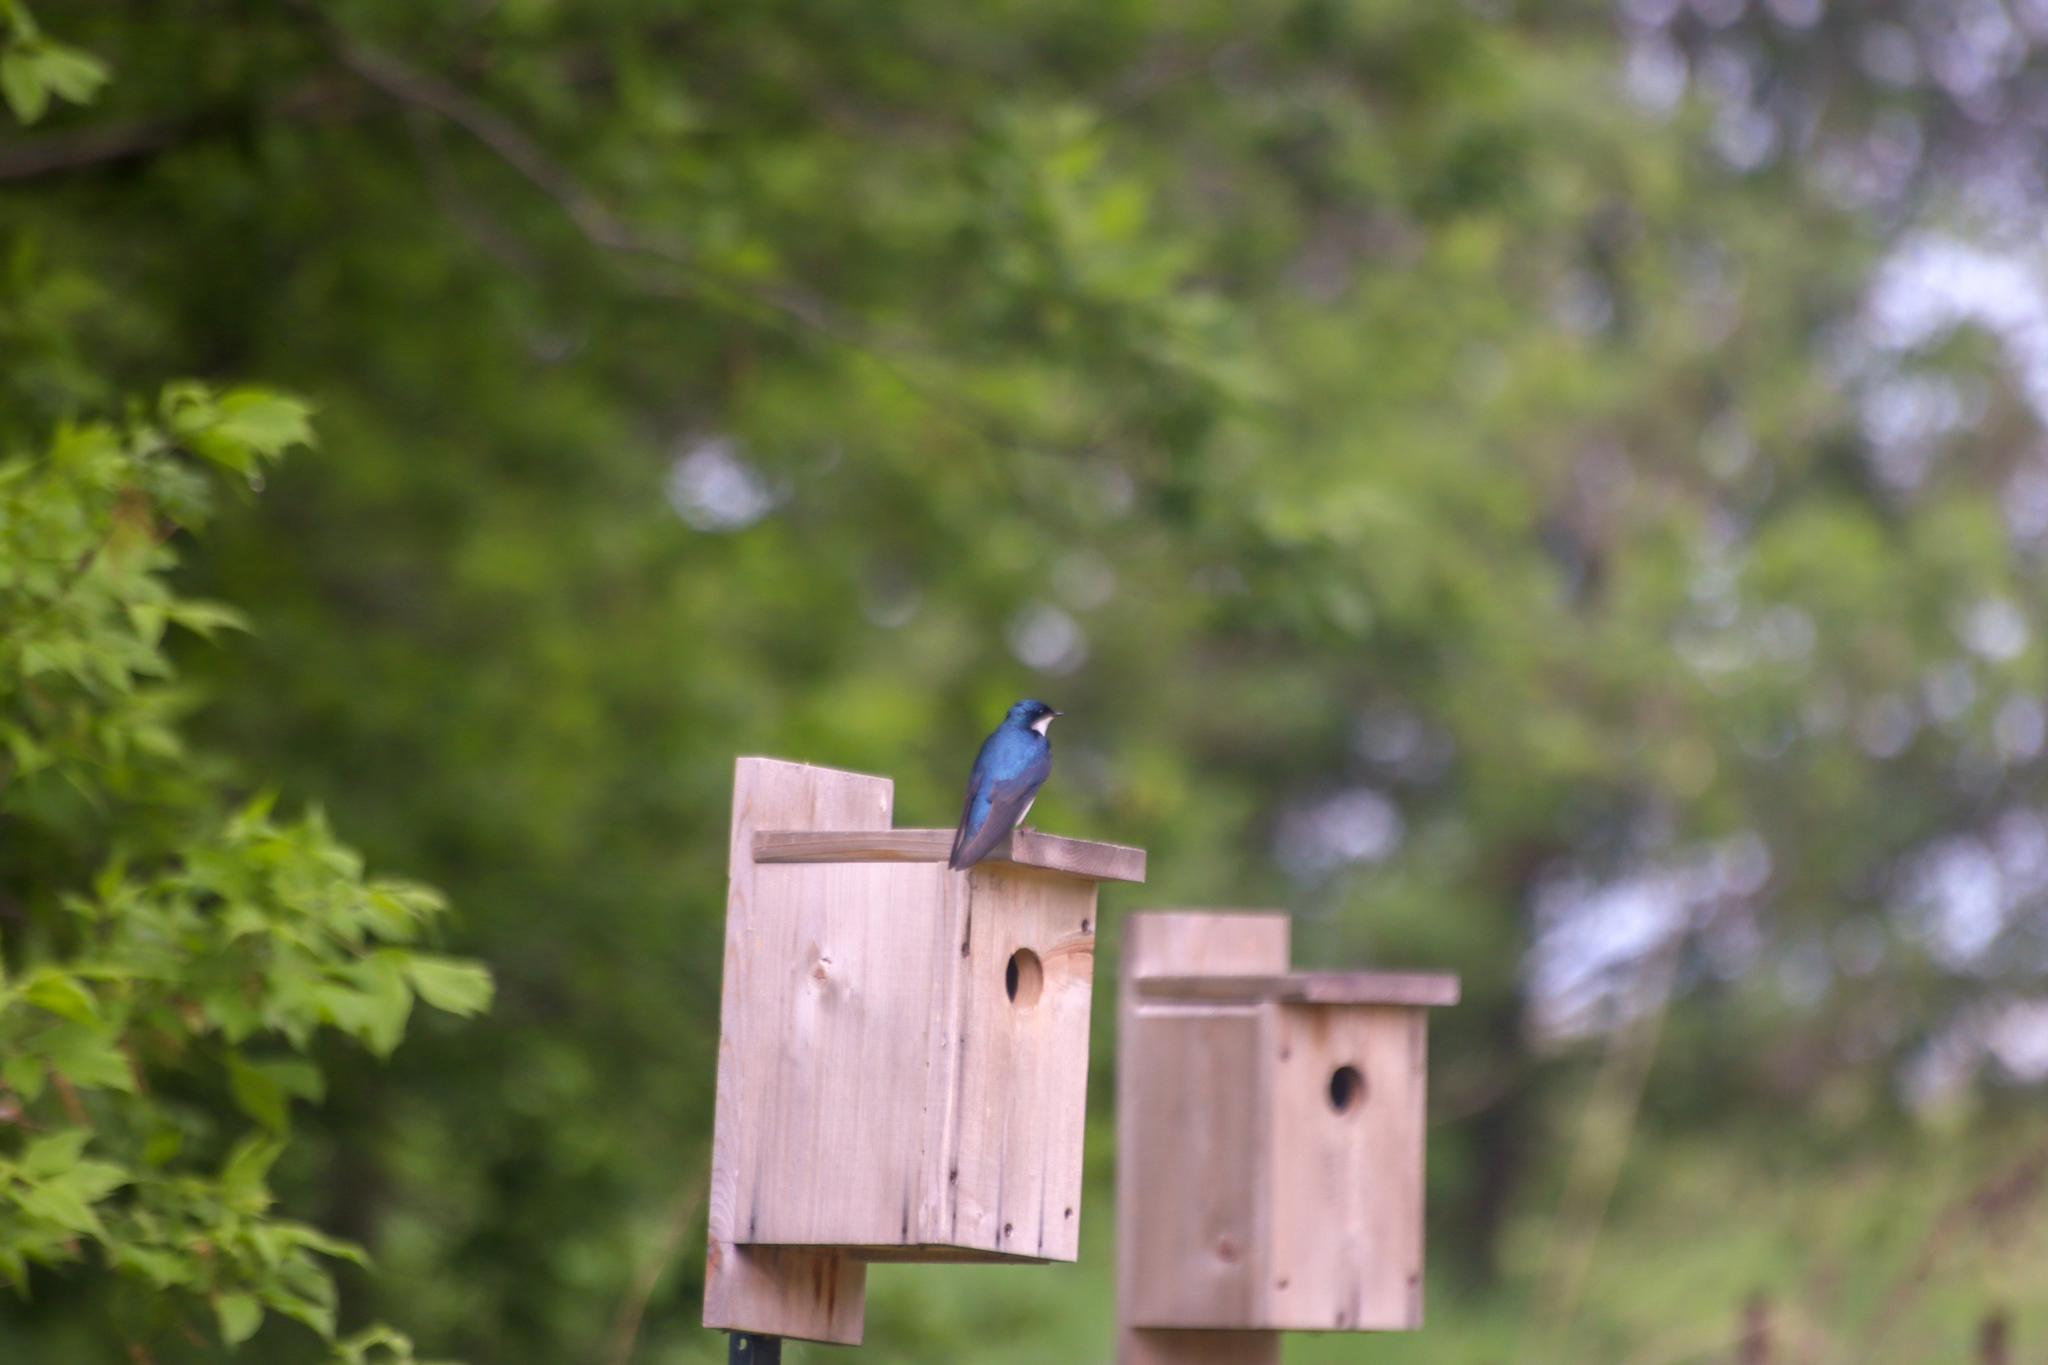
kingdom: Animalia
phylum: Chordata
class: Aves
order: Passeriformes
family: Hirundinidae
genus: Tachycineta
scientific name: Tachycineta bicolor
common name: Tree swallow
